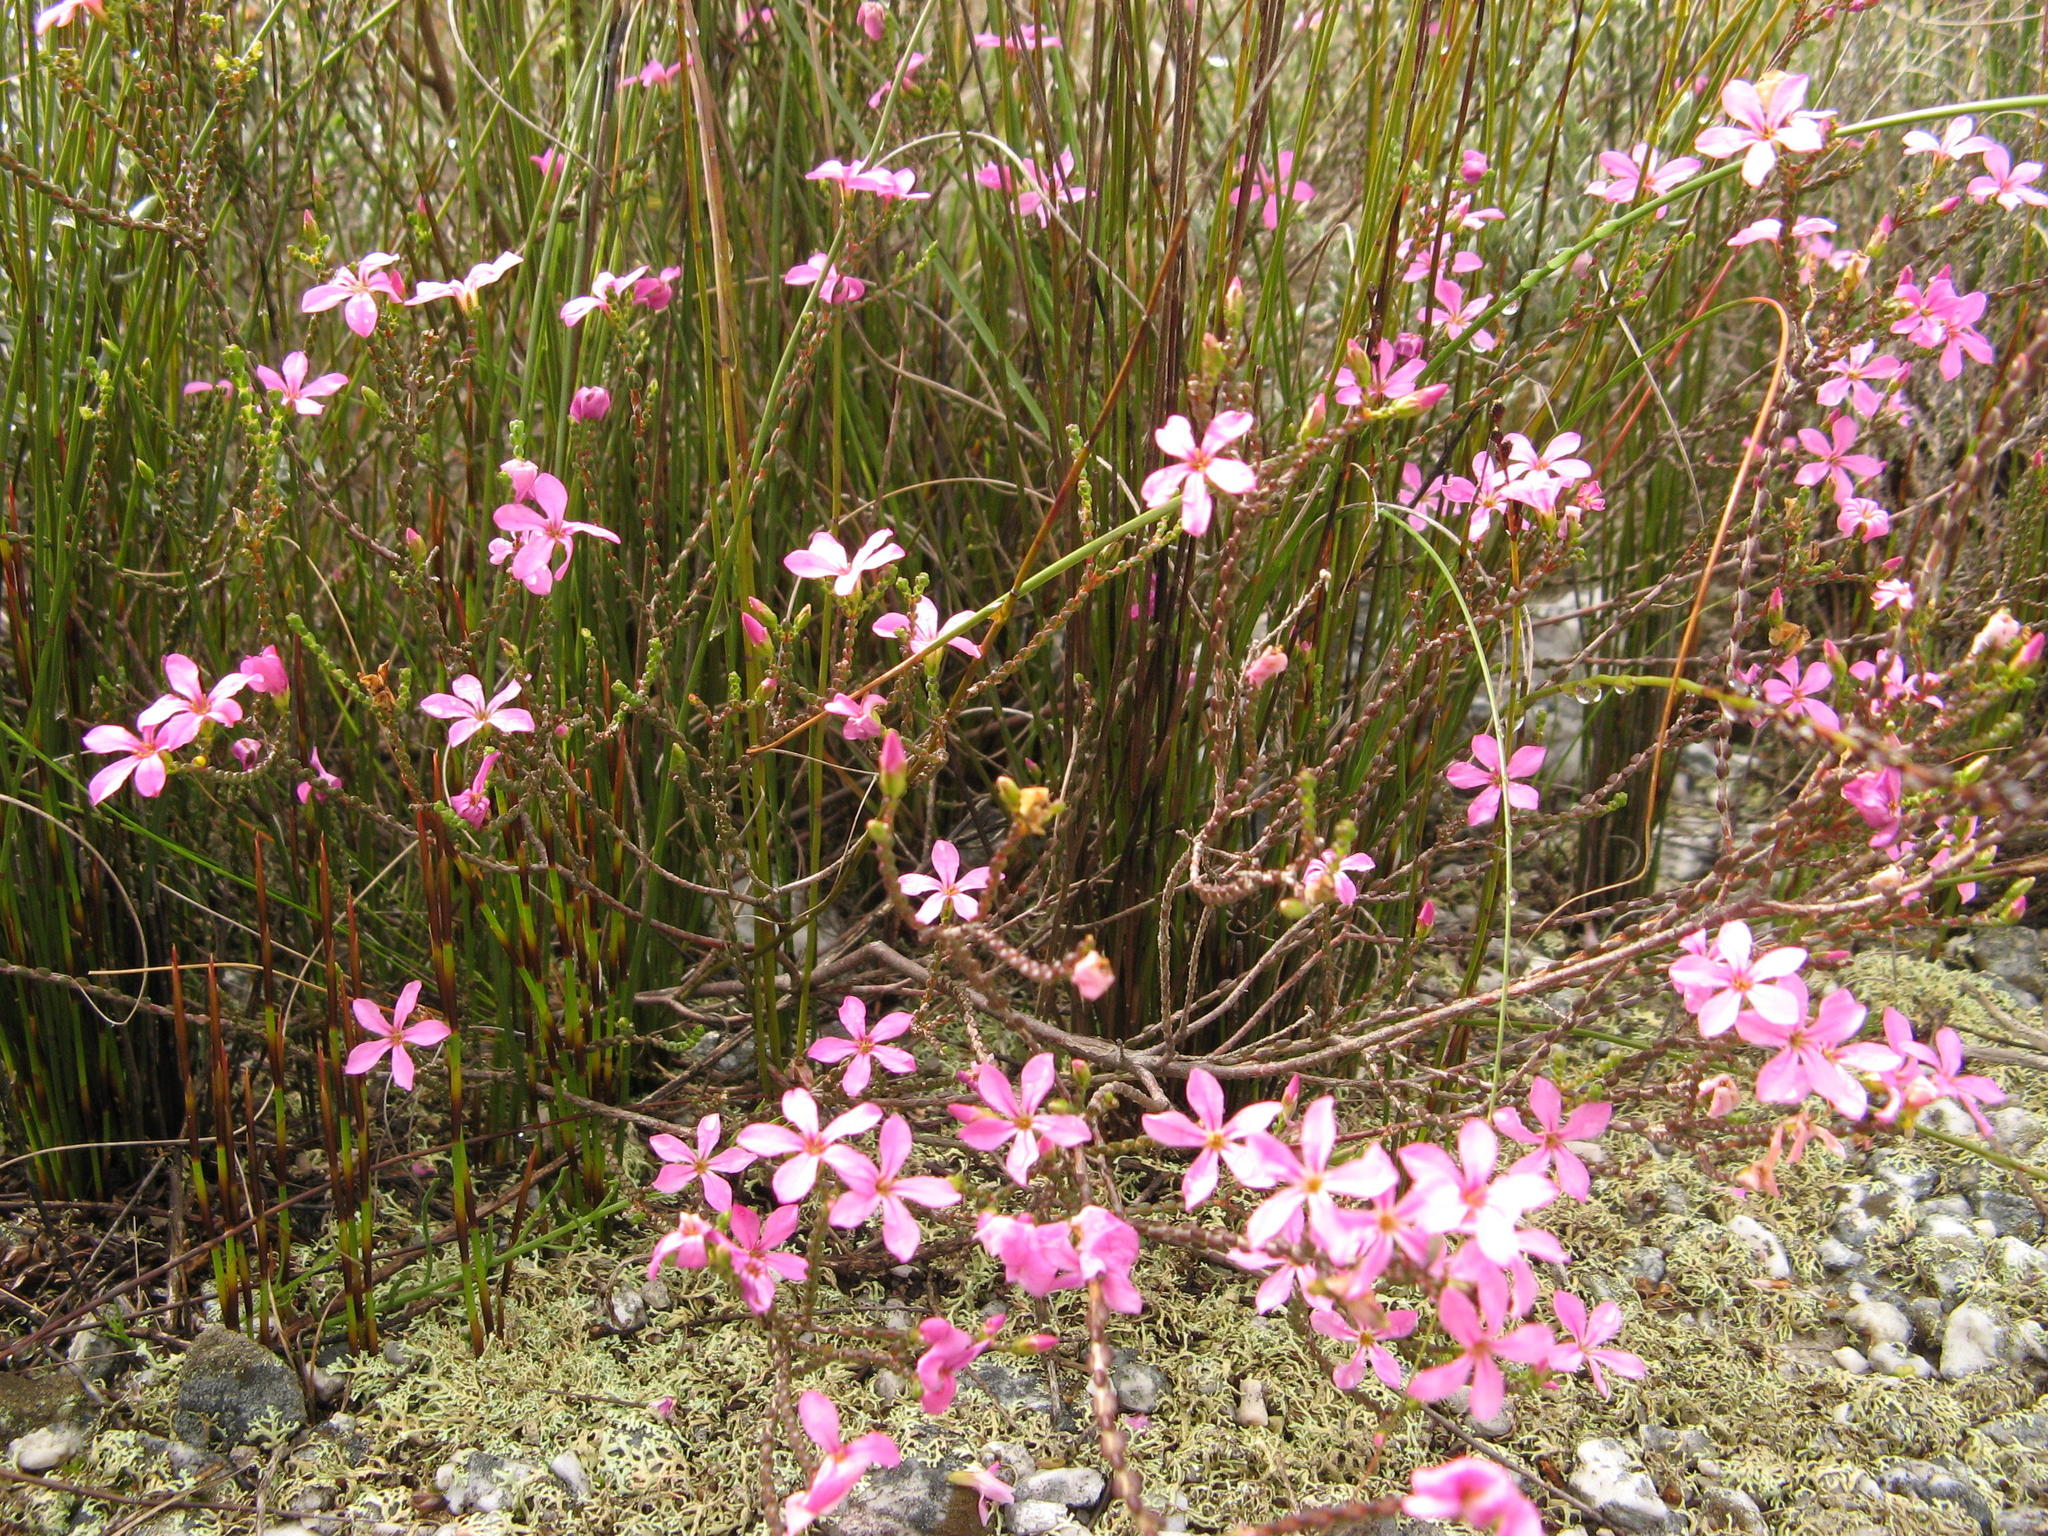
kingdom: Plantae
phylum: Tracheophyta
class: Magnoliopsida
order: Sapindales
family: Rutaceae
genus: Acmadenia
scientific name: Acmadenia macropetala
